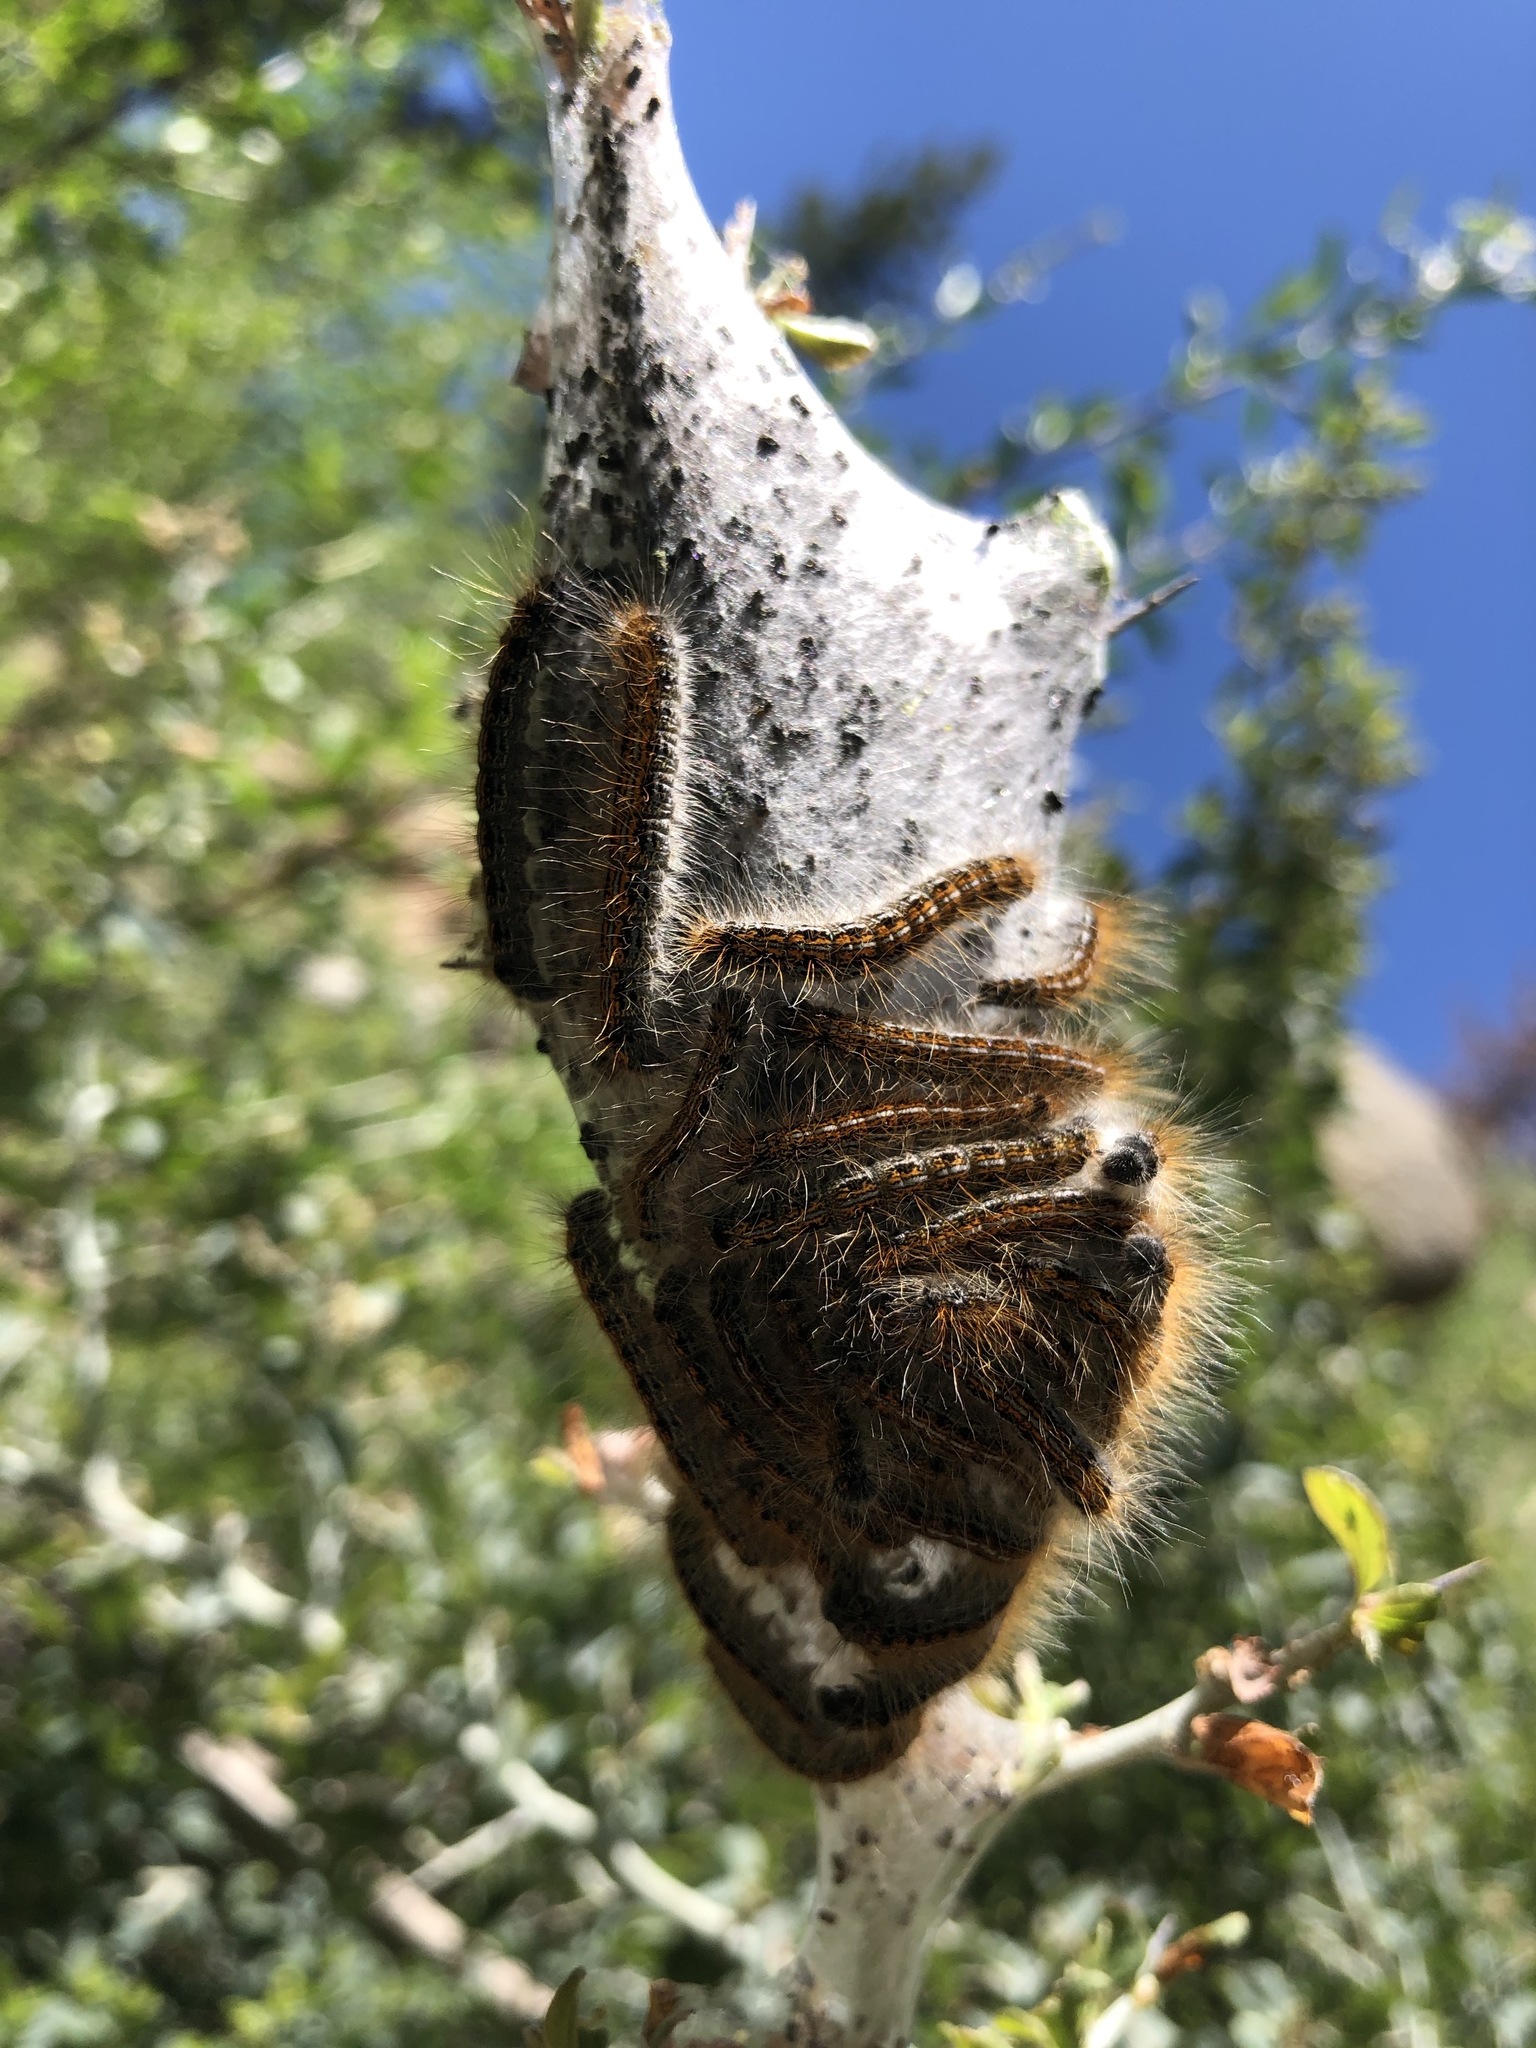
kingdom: Animalia
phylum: Arthropoda
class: Insecta
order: Lepidoptera
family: Lasiocampidae
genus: Malacosoma
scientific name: Malacosoma californica
